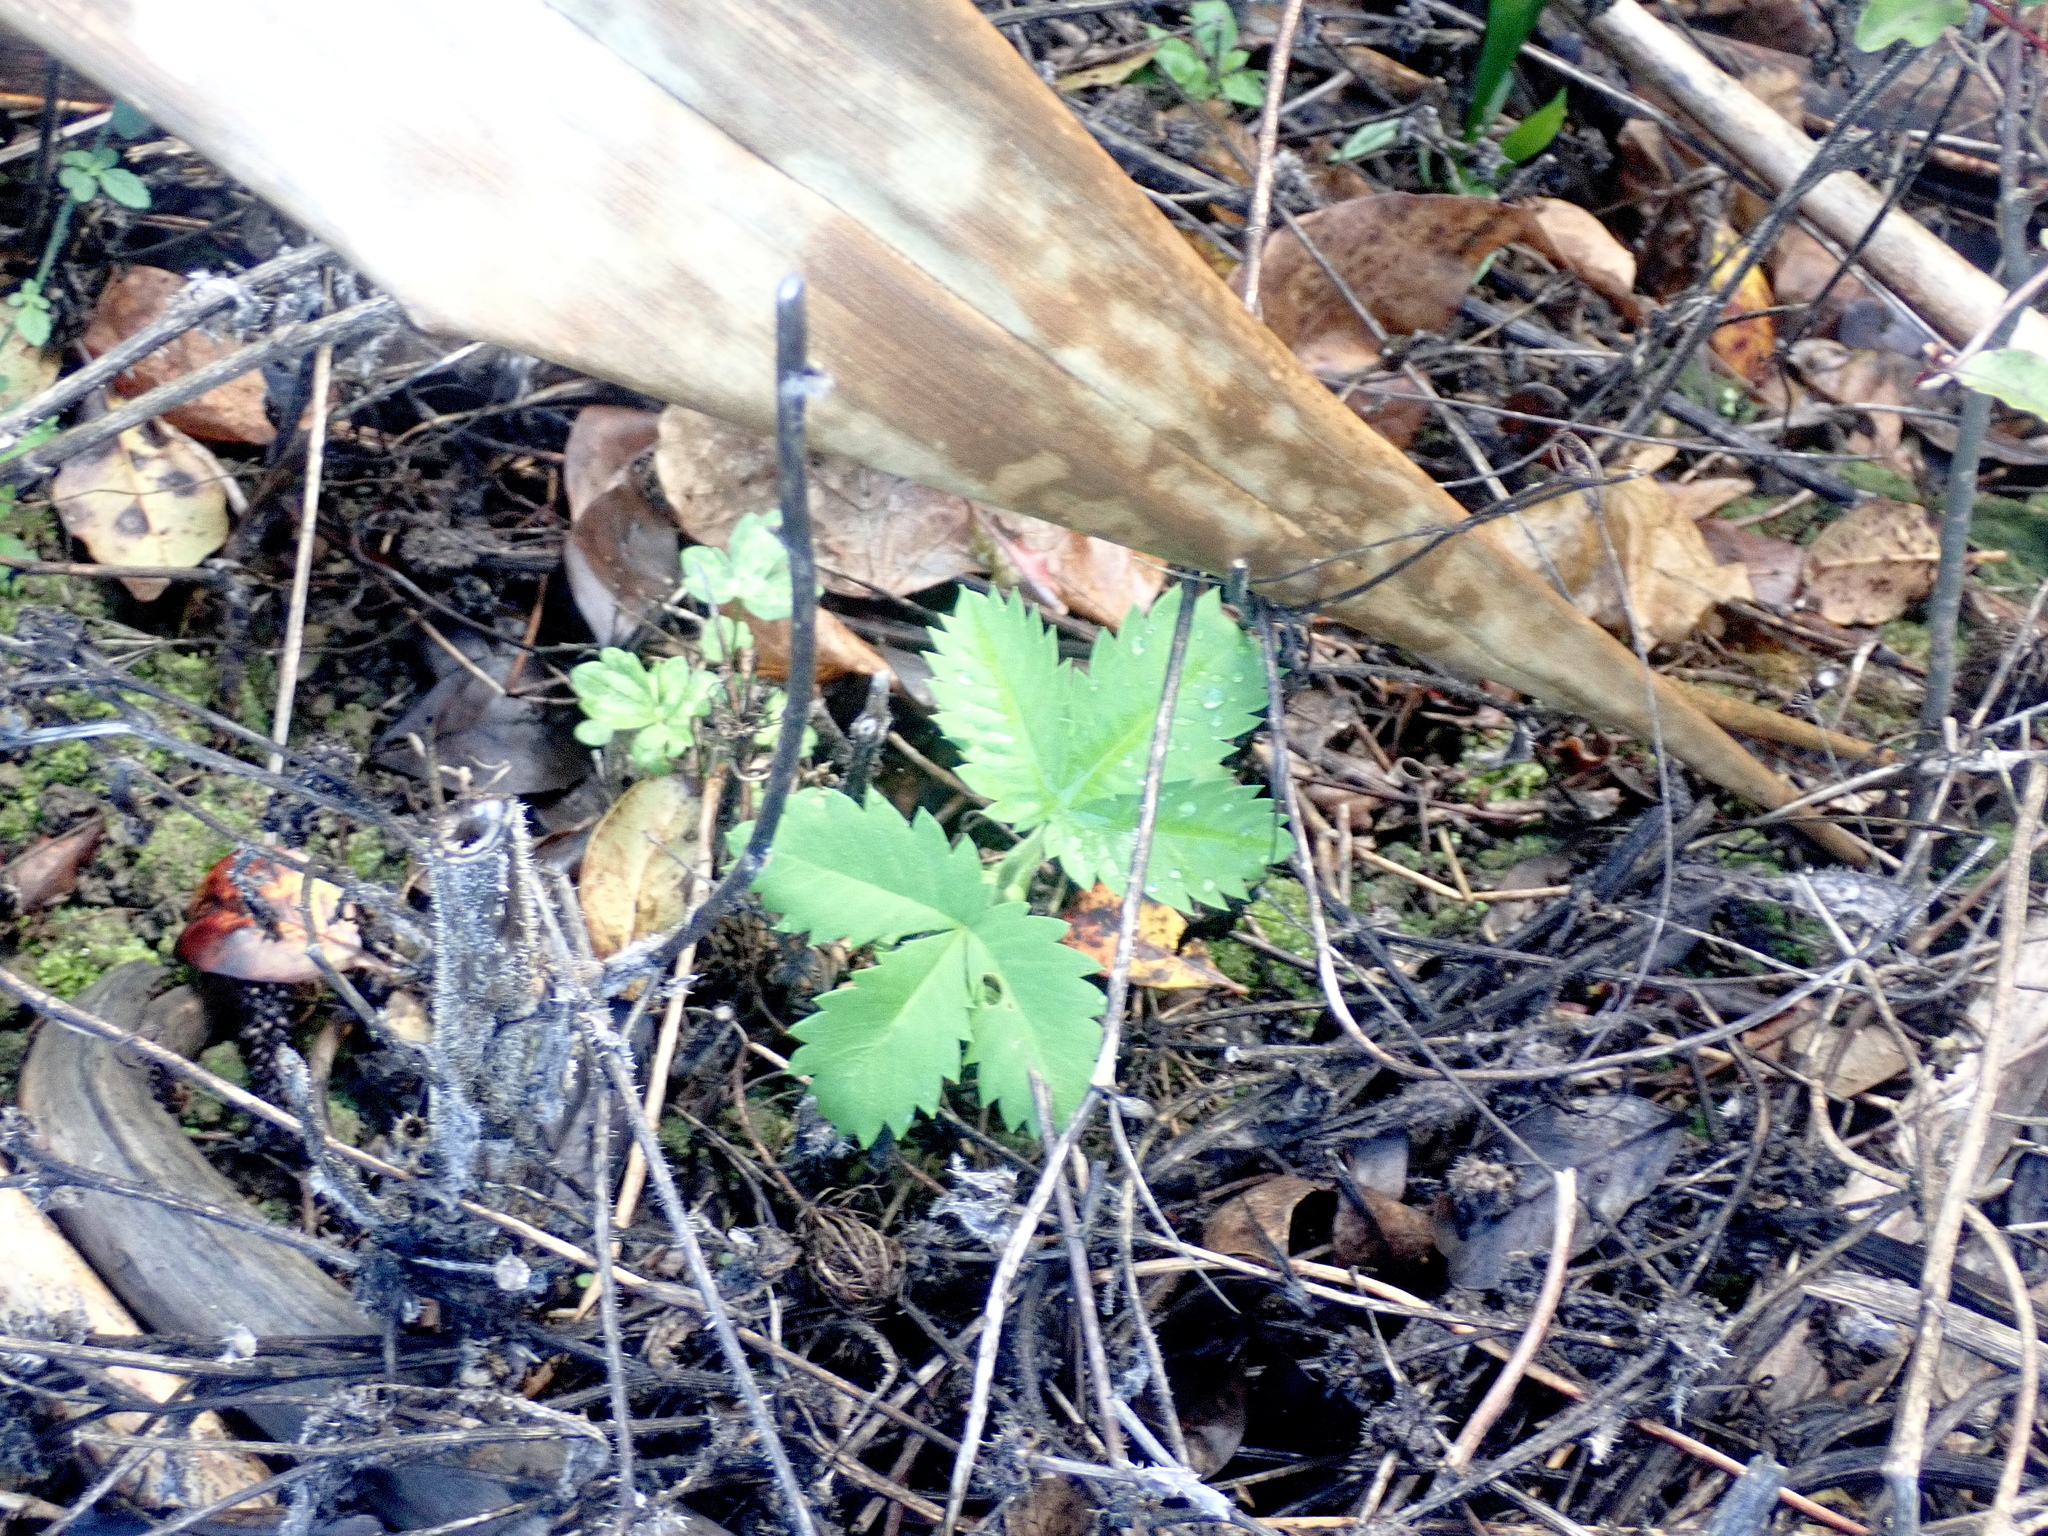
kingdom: Plantae
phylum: Tracheophyta
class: Magnoliopsida
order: Geraniales
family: Melianthaceae
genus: Melianthus
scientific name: Melianthus major
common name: Honey-flower
